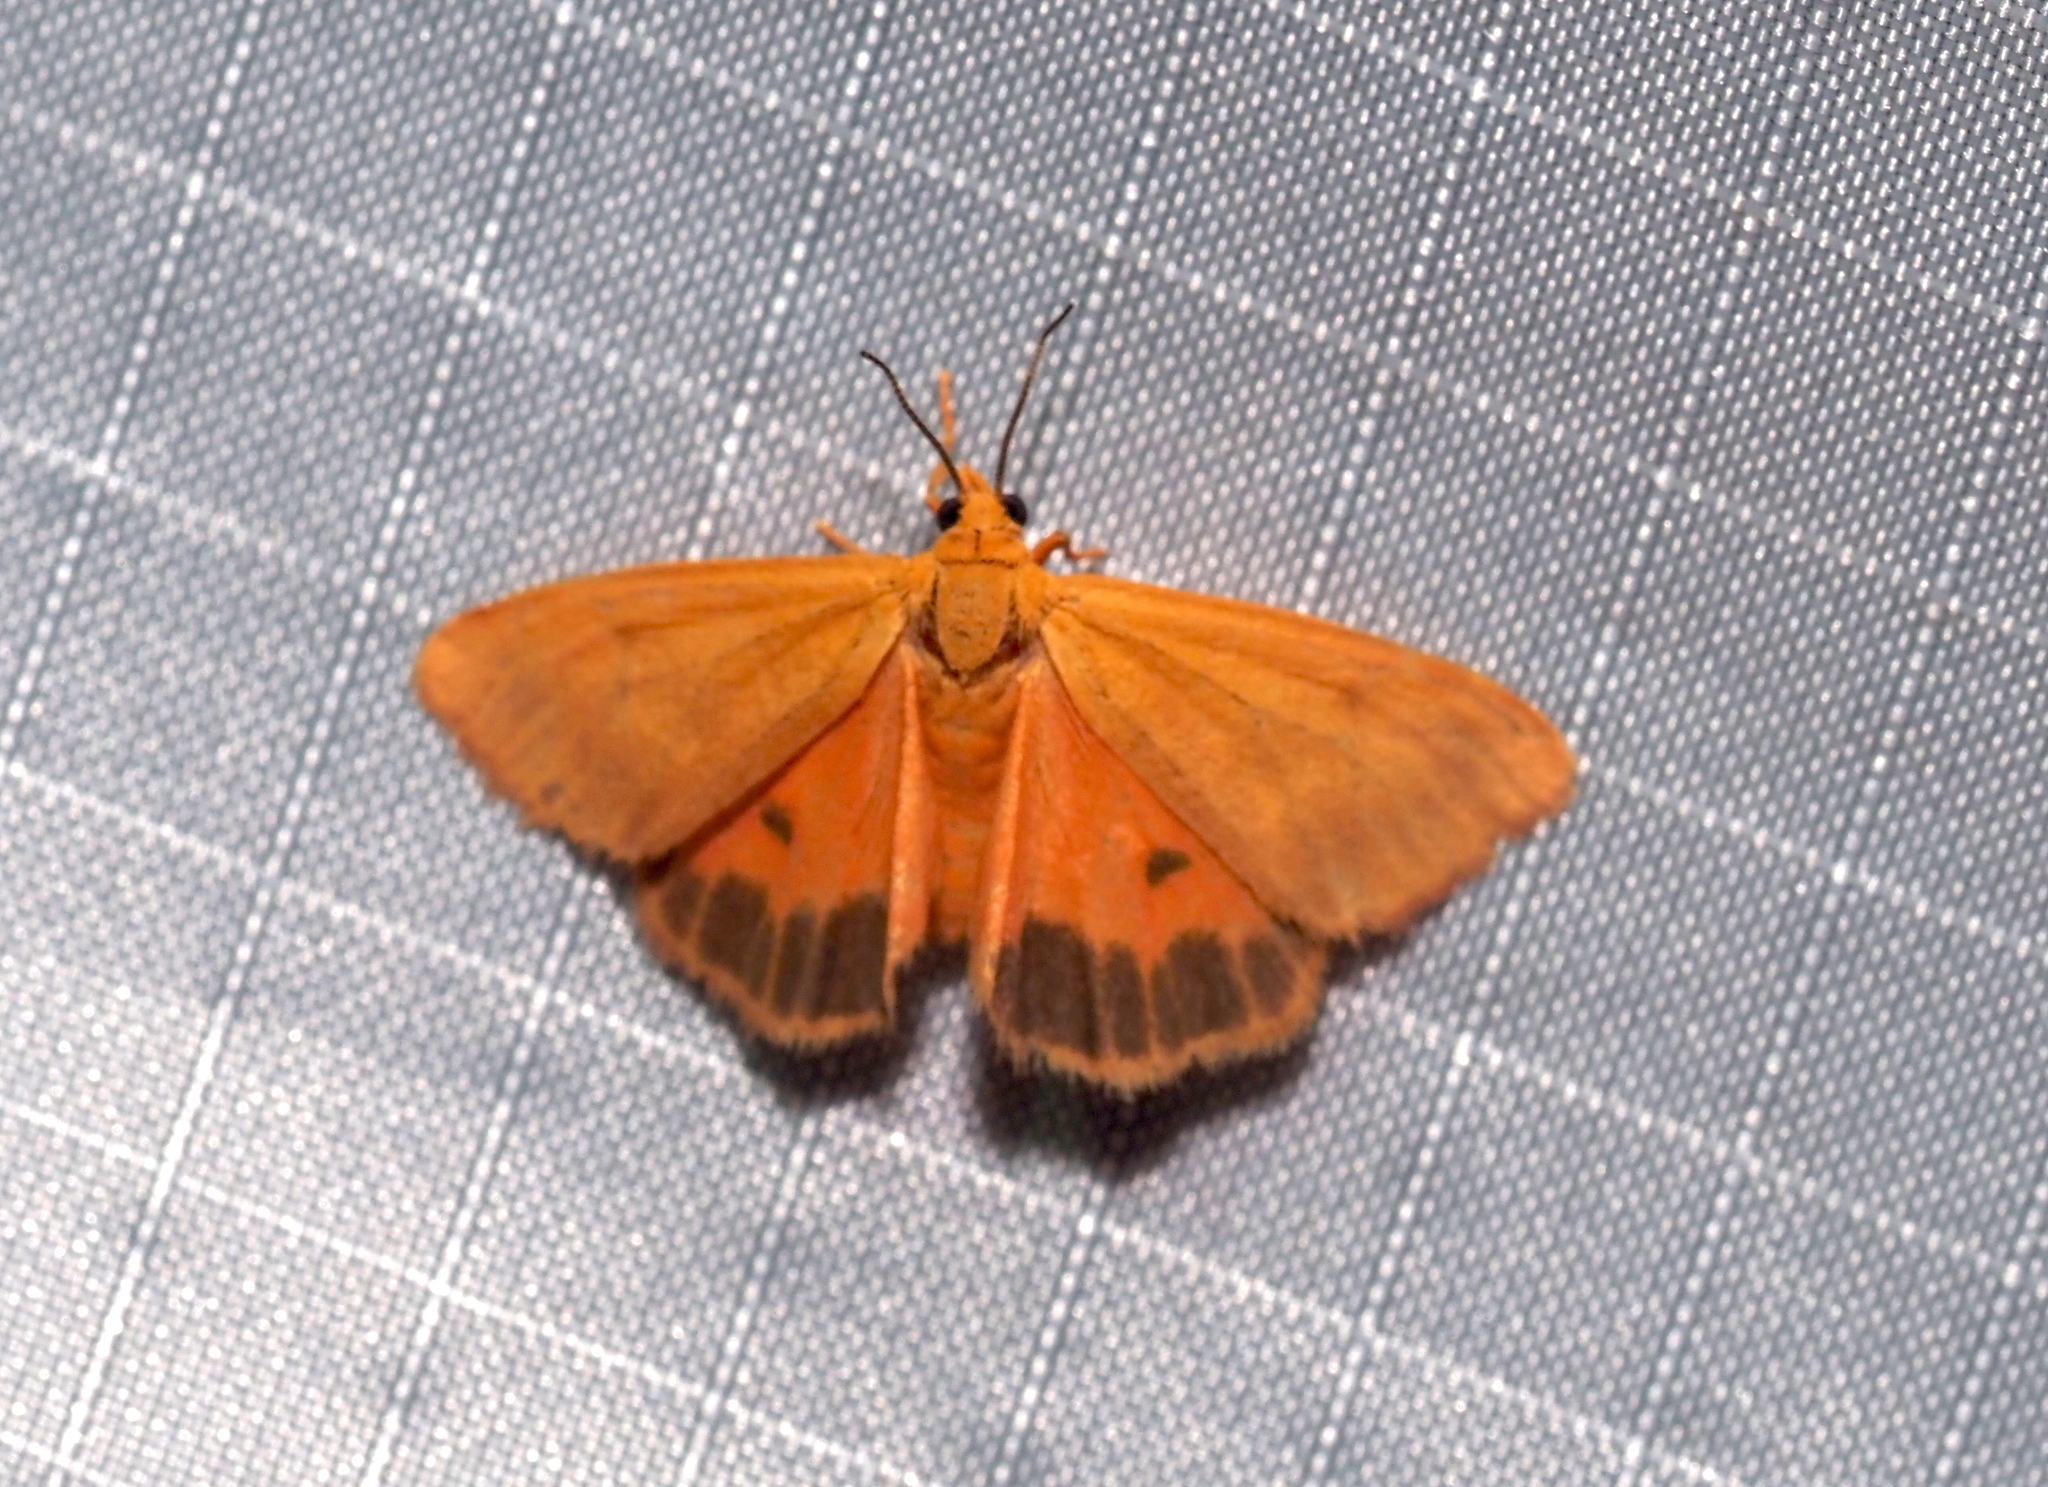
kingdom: Animalia
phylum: Arthropoda
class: Insecta
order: Lepidoptera
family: Erebidae
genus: Virbia
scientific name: Virbia aurantiaca
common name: Orange virbia moth
